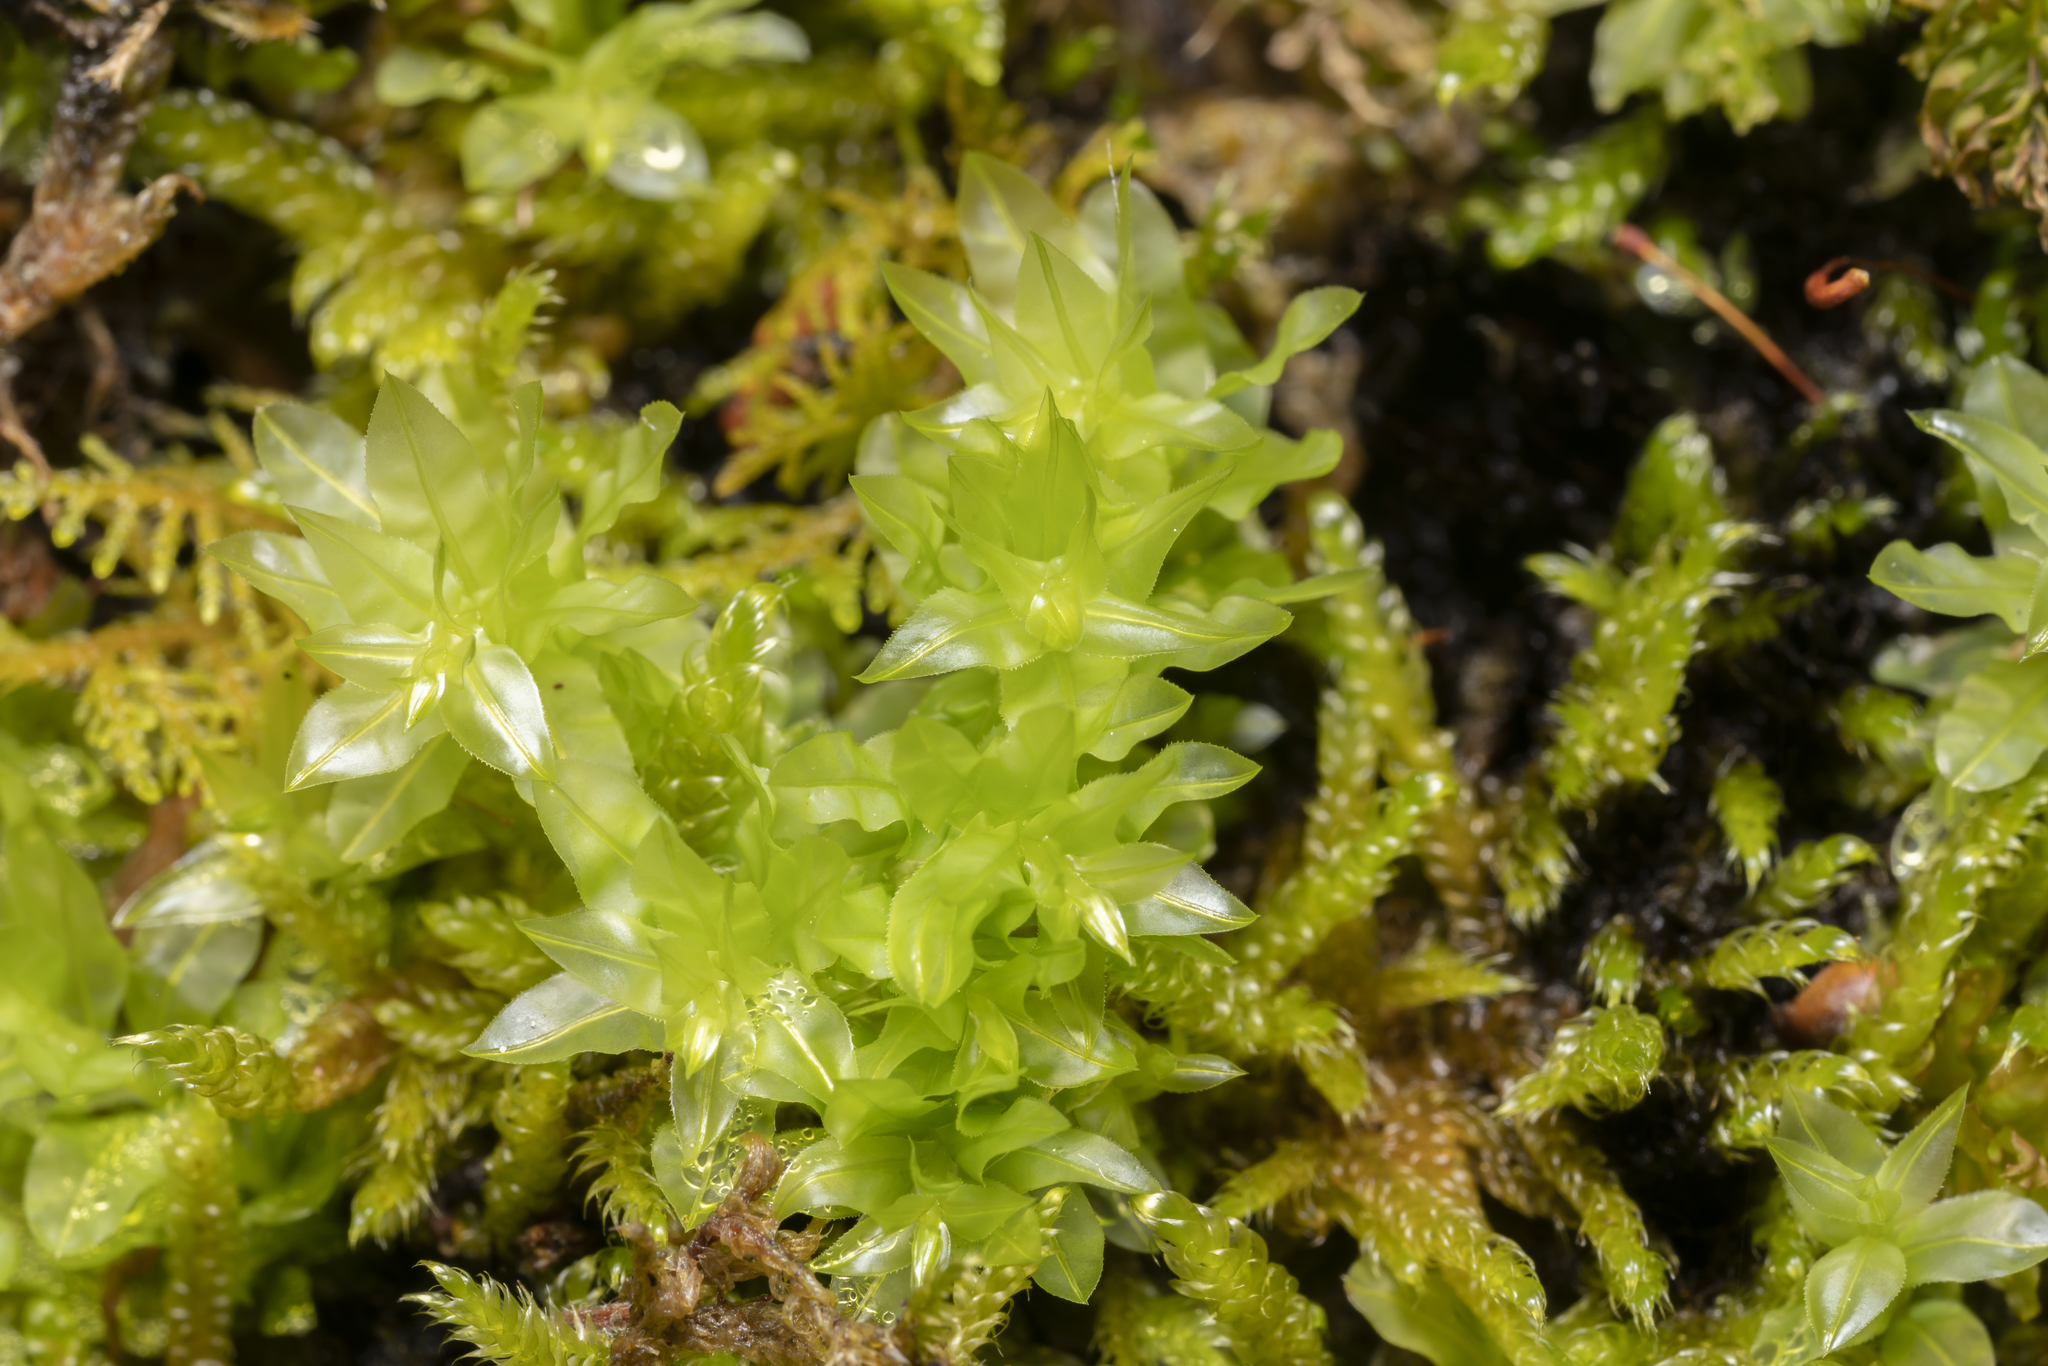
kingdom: Plantae
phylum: Bryophyta
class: Bryopsida
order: Bryales
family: Mniaceae
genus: Plagiomnium
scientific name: Plagiomnium undulatum
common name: Hart's-tongue thyme-moss
